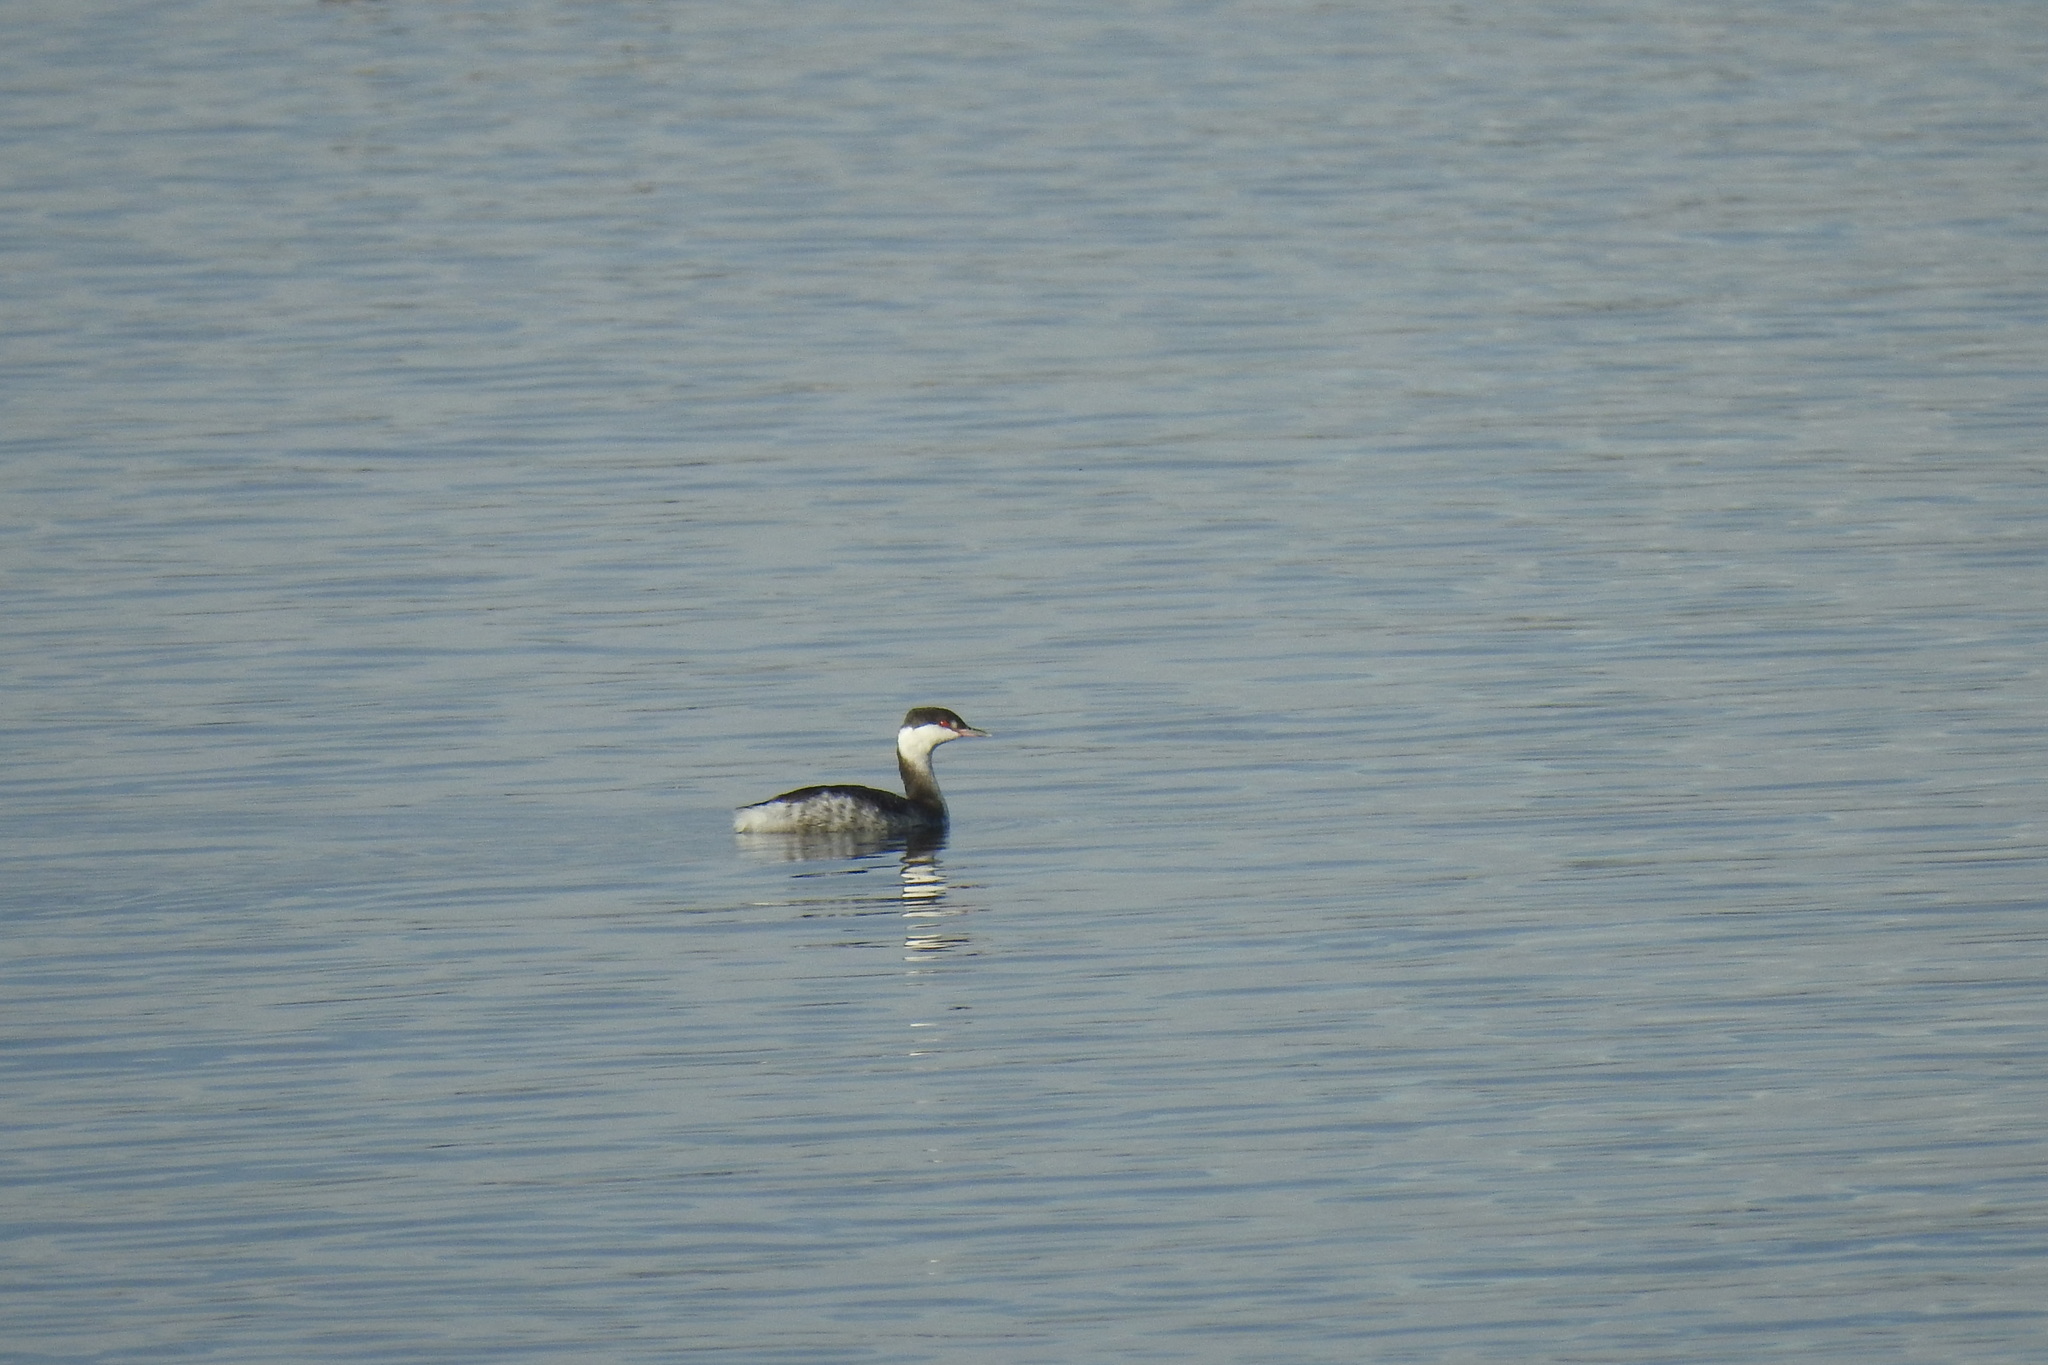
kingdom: Animalia
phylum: Chordata
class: Aves
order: Podicipediformes
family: Podicipedidae
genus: Podiceps
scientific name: Podiceps auritus
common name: Horned grebe
